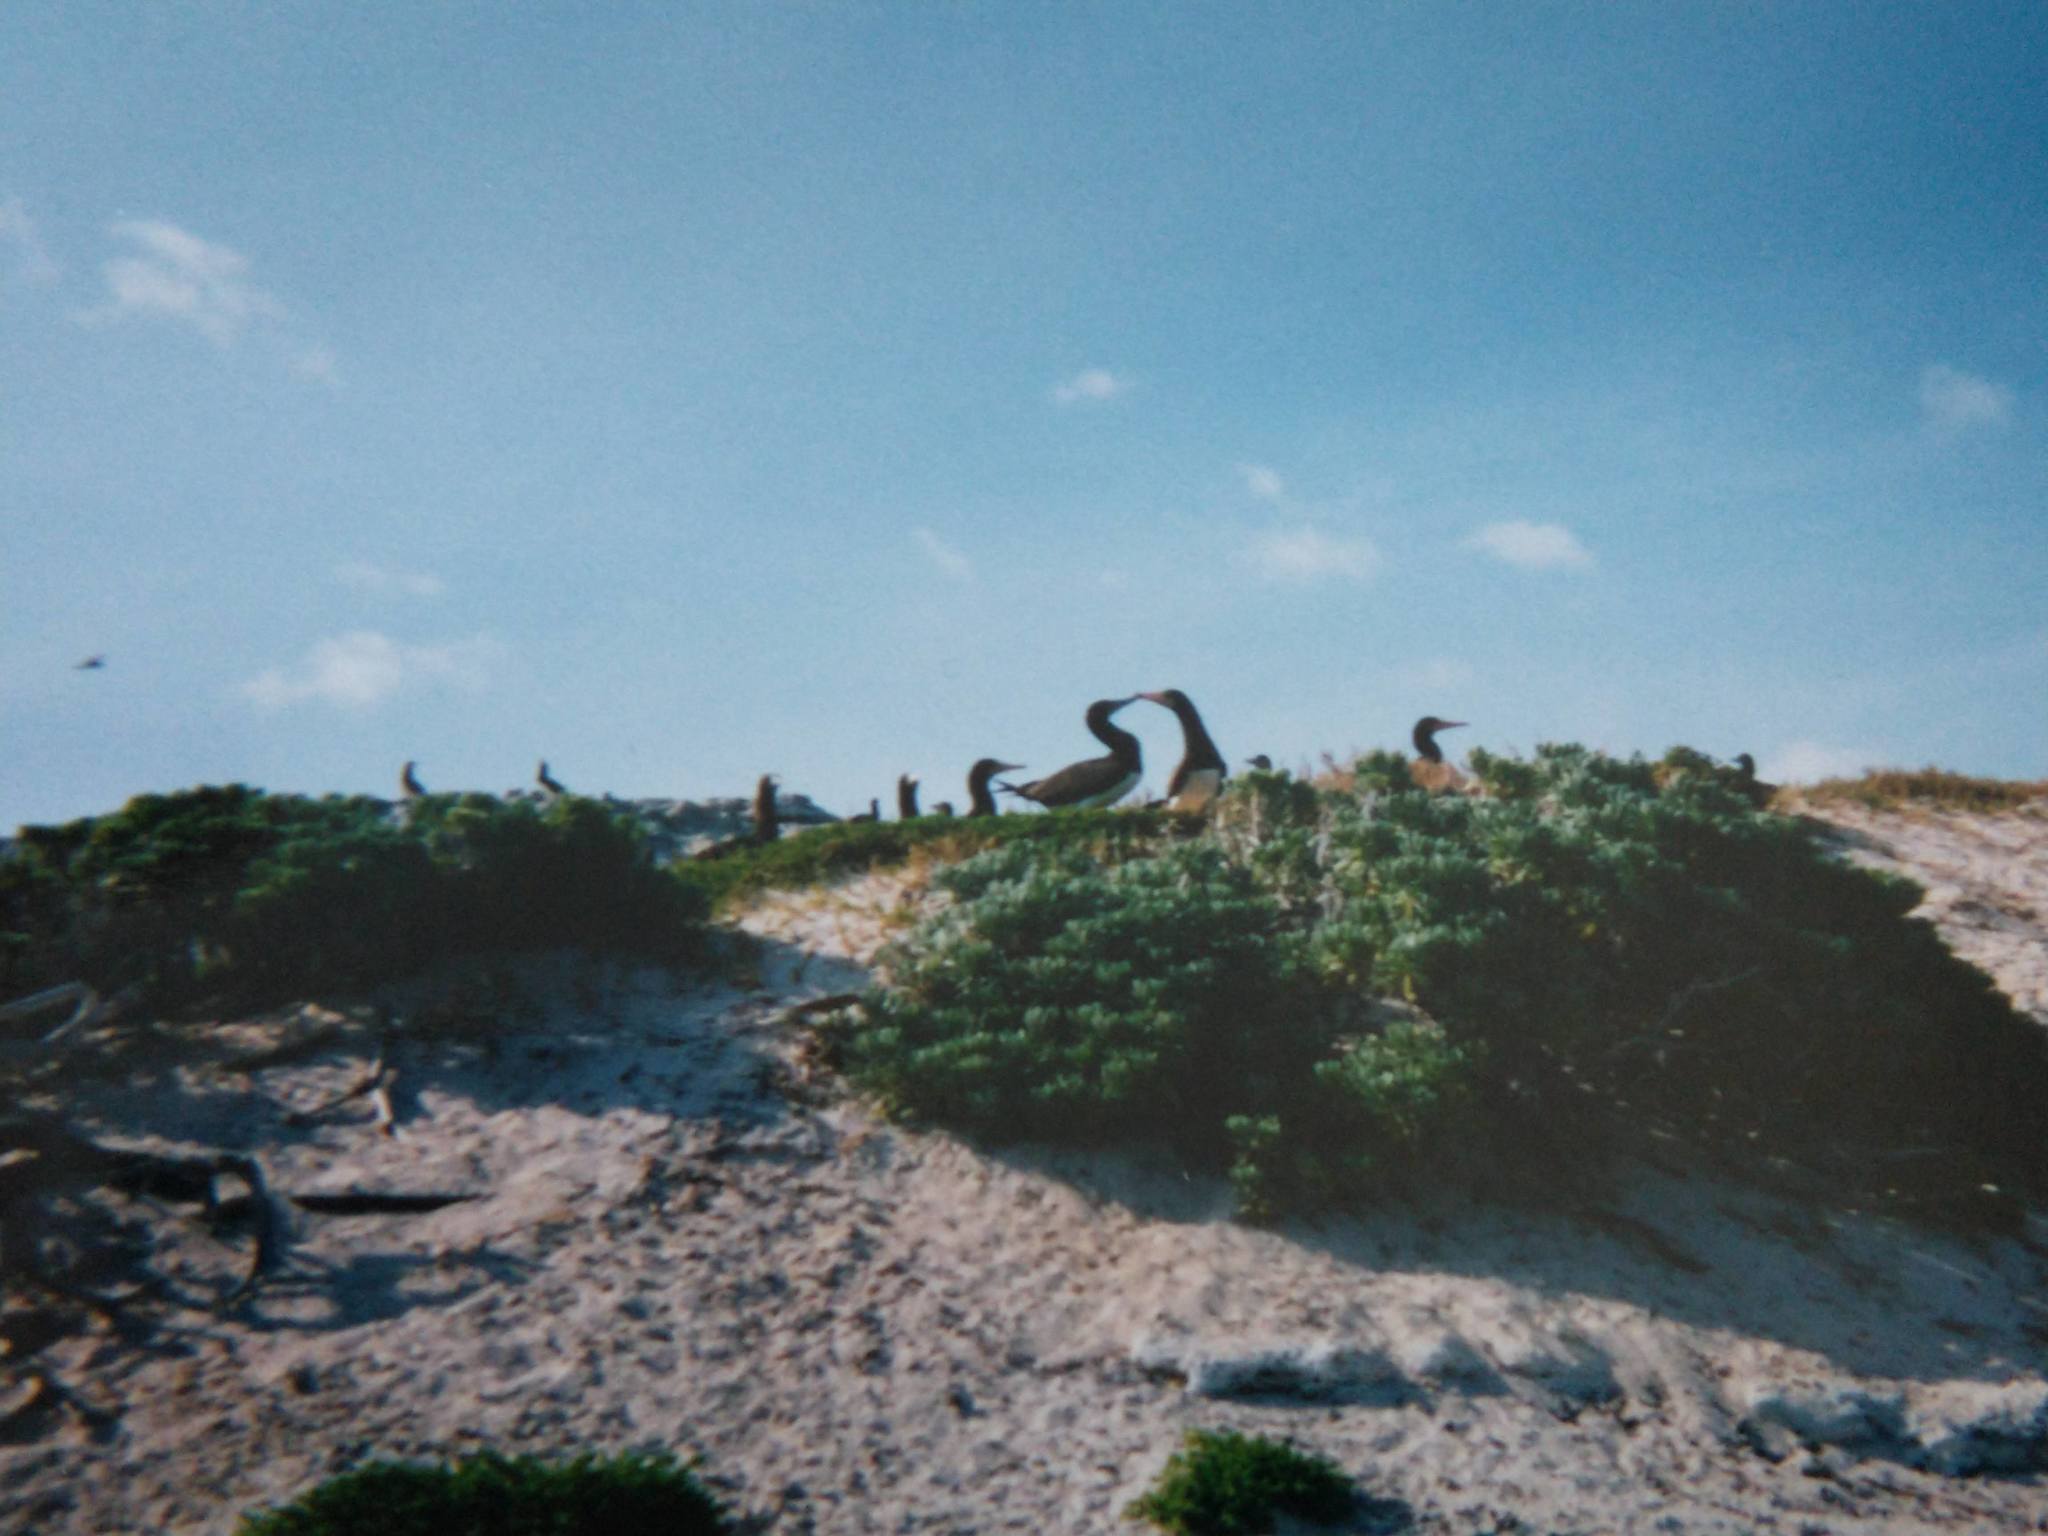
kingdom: Animalia
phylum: Chordata
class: Aves
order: Suliformes
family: Sulidae
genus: Sula
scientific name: Sula leucogaster
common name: Brown booby
